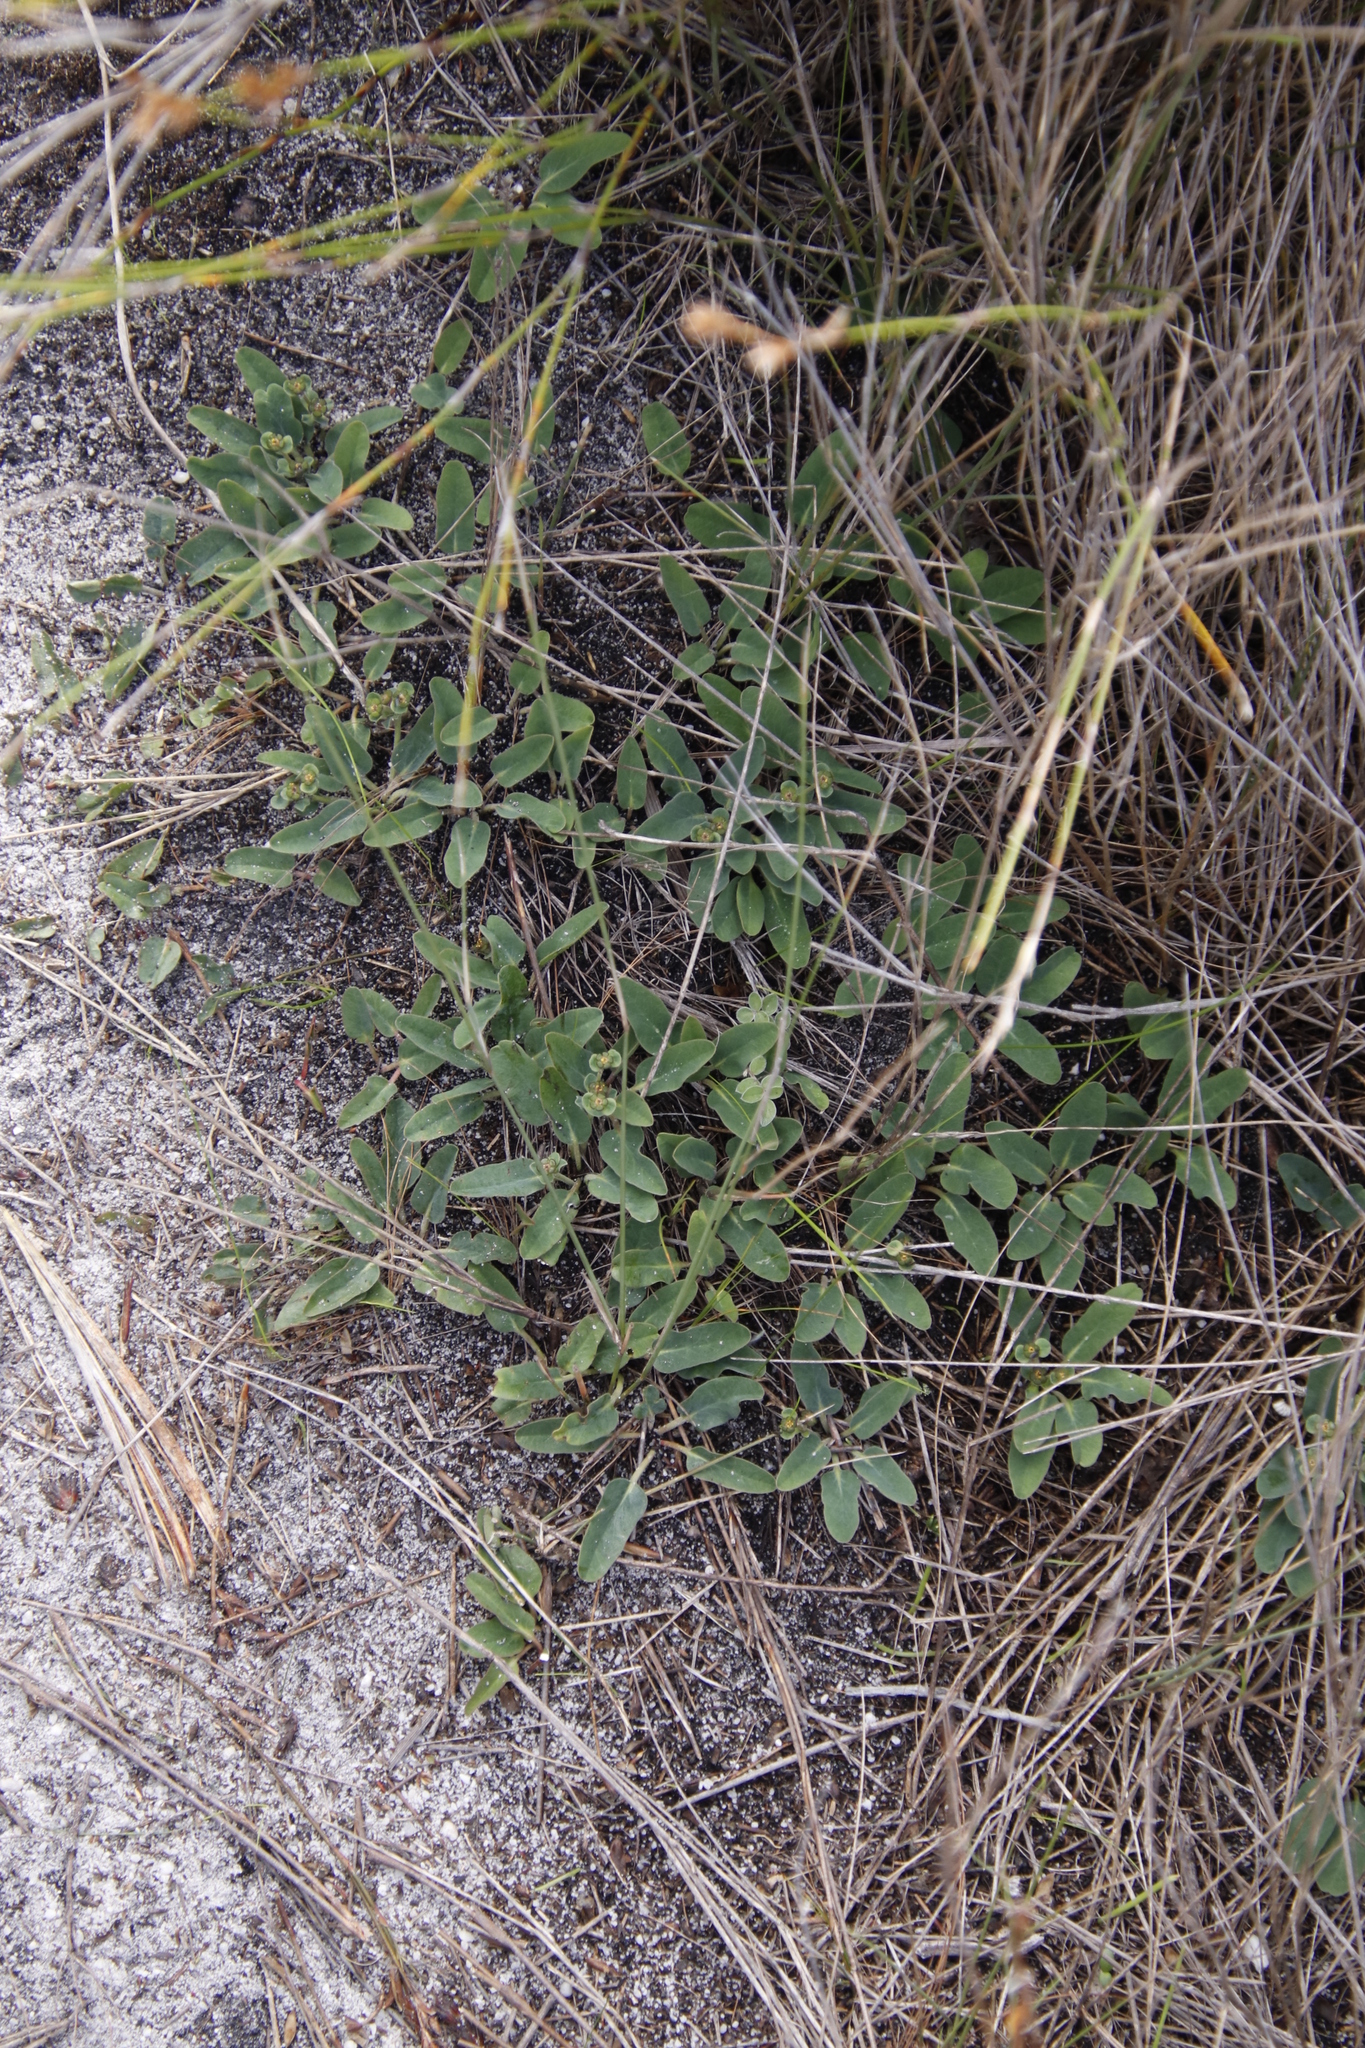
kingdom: Plantae
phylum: Tracheophyta
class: Magnoliopsida
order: Malpighiales
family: Euphorbiaceae
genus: Euphorbia
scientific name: Euphorbia tuberosa
